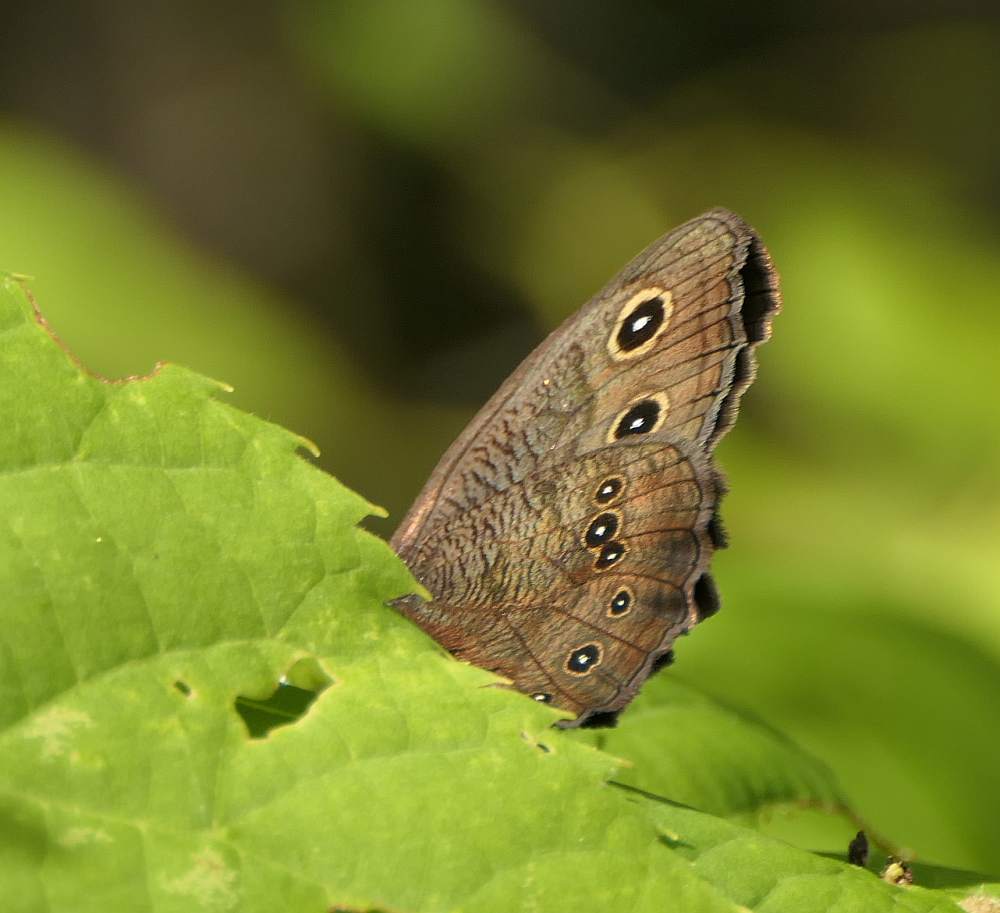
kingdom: Animalia
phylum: Arthropoda
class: Insecta
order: Lepidoptera
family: Nymphalidae
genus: Cercyonis
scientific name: Cercyonis pegala
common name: Common wood-nymph
